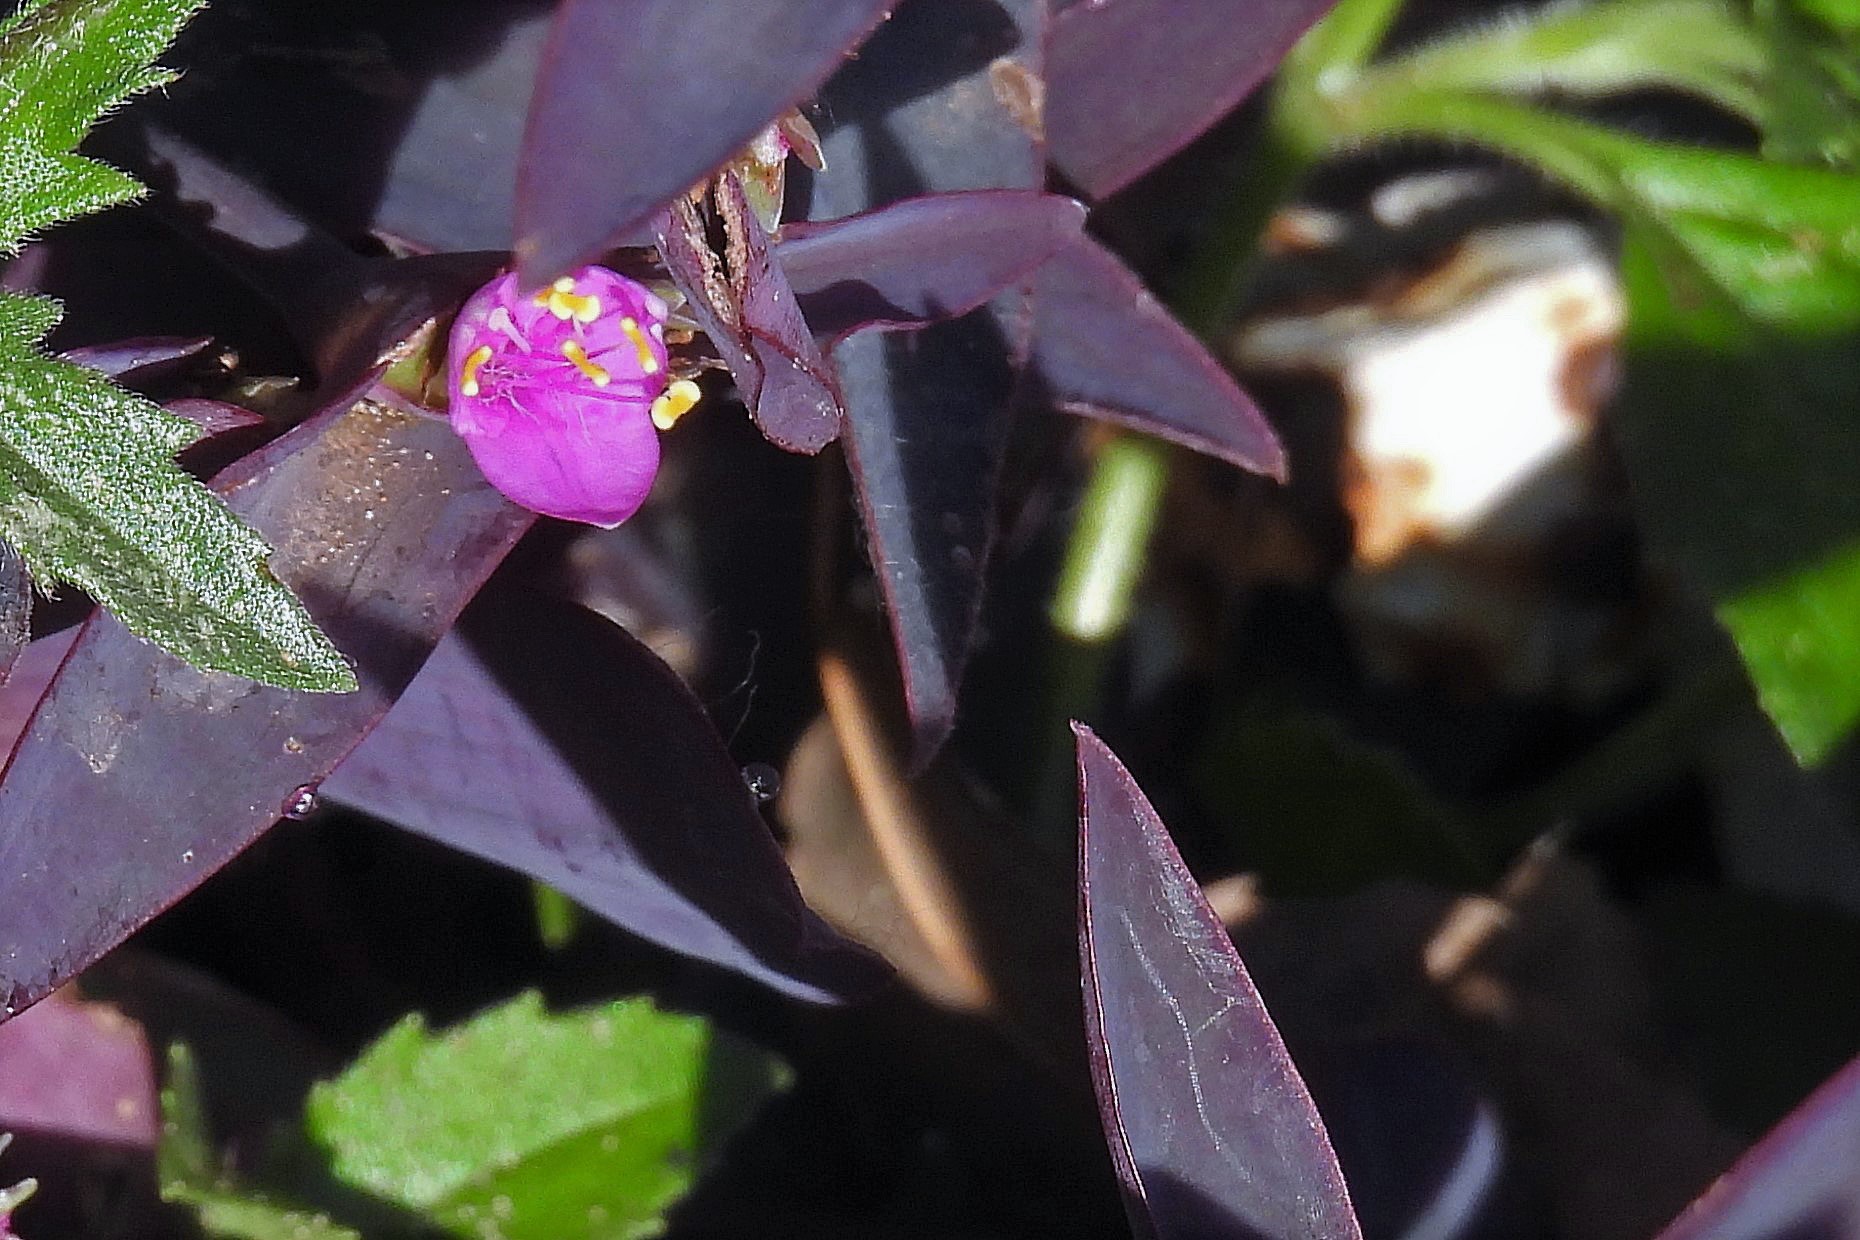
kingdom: Plantae
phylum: Tracheophyta
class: Liliopsida
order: Commelinales
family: Commelinaceae
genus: Tradescantia
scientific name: Tradescantia pallida
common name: Purpleheart
